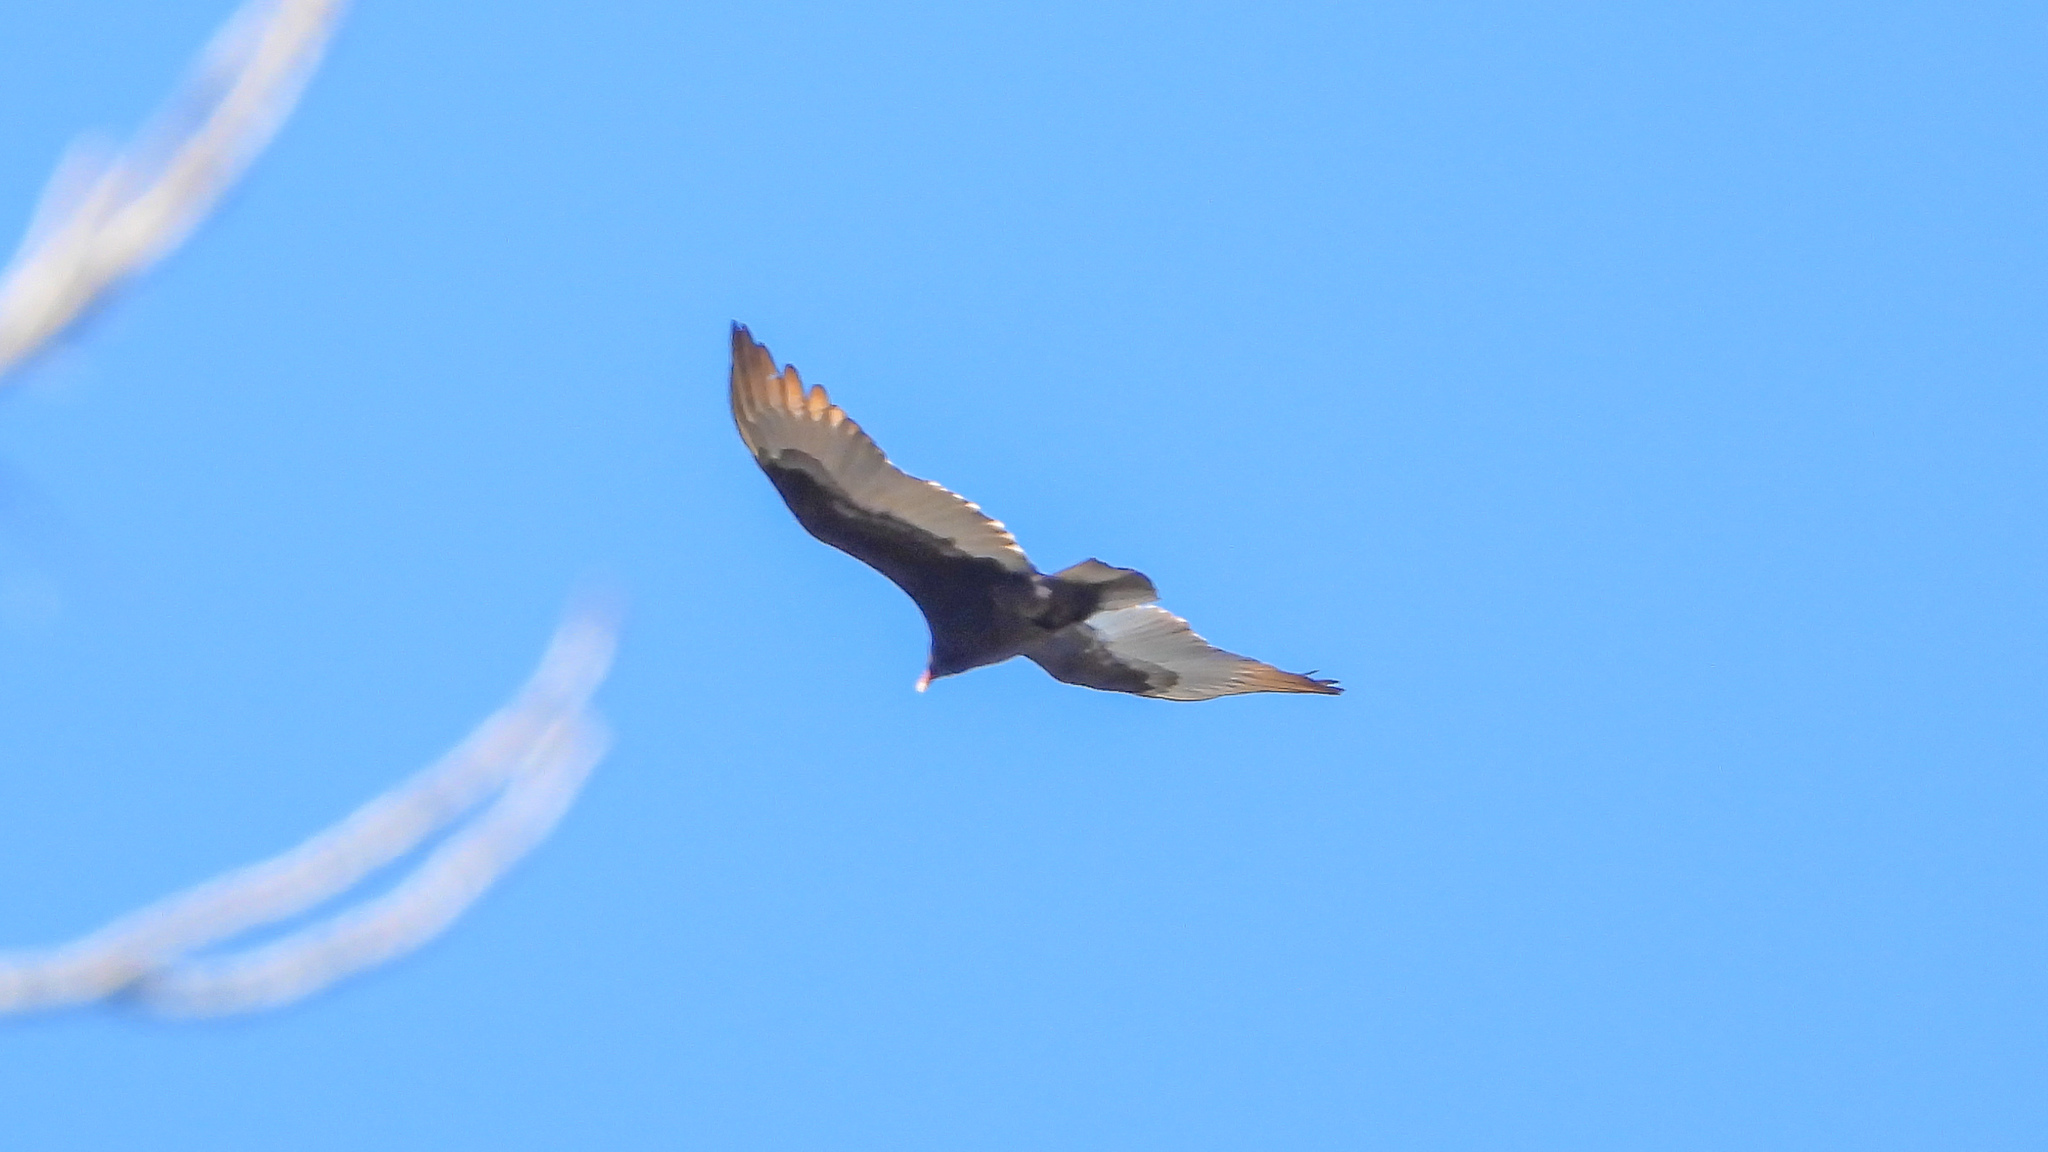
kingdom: Animalia
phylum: Chordata
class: Aves
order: Accipitriformes
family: Cathartidae
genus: Cathartes
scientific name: Cathartes aura
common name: Turkey vulture
